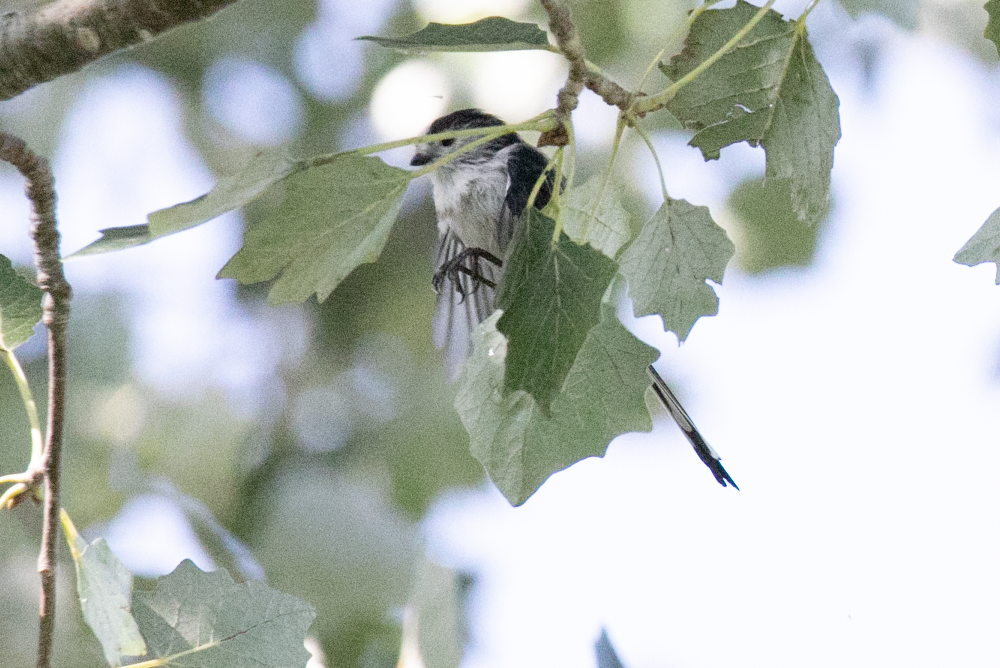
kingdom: Animalia
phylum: Chordata
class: Aves
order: Passeriformes
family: Aegithalidae
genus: Aegithalos
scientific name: Aegithalos caudatus
